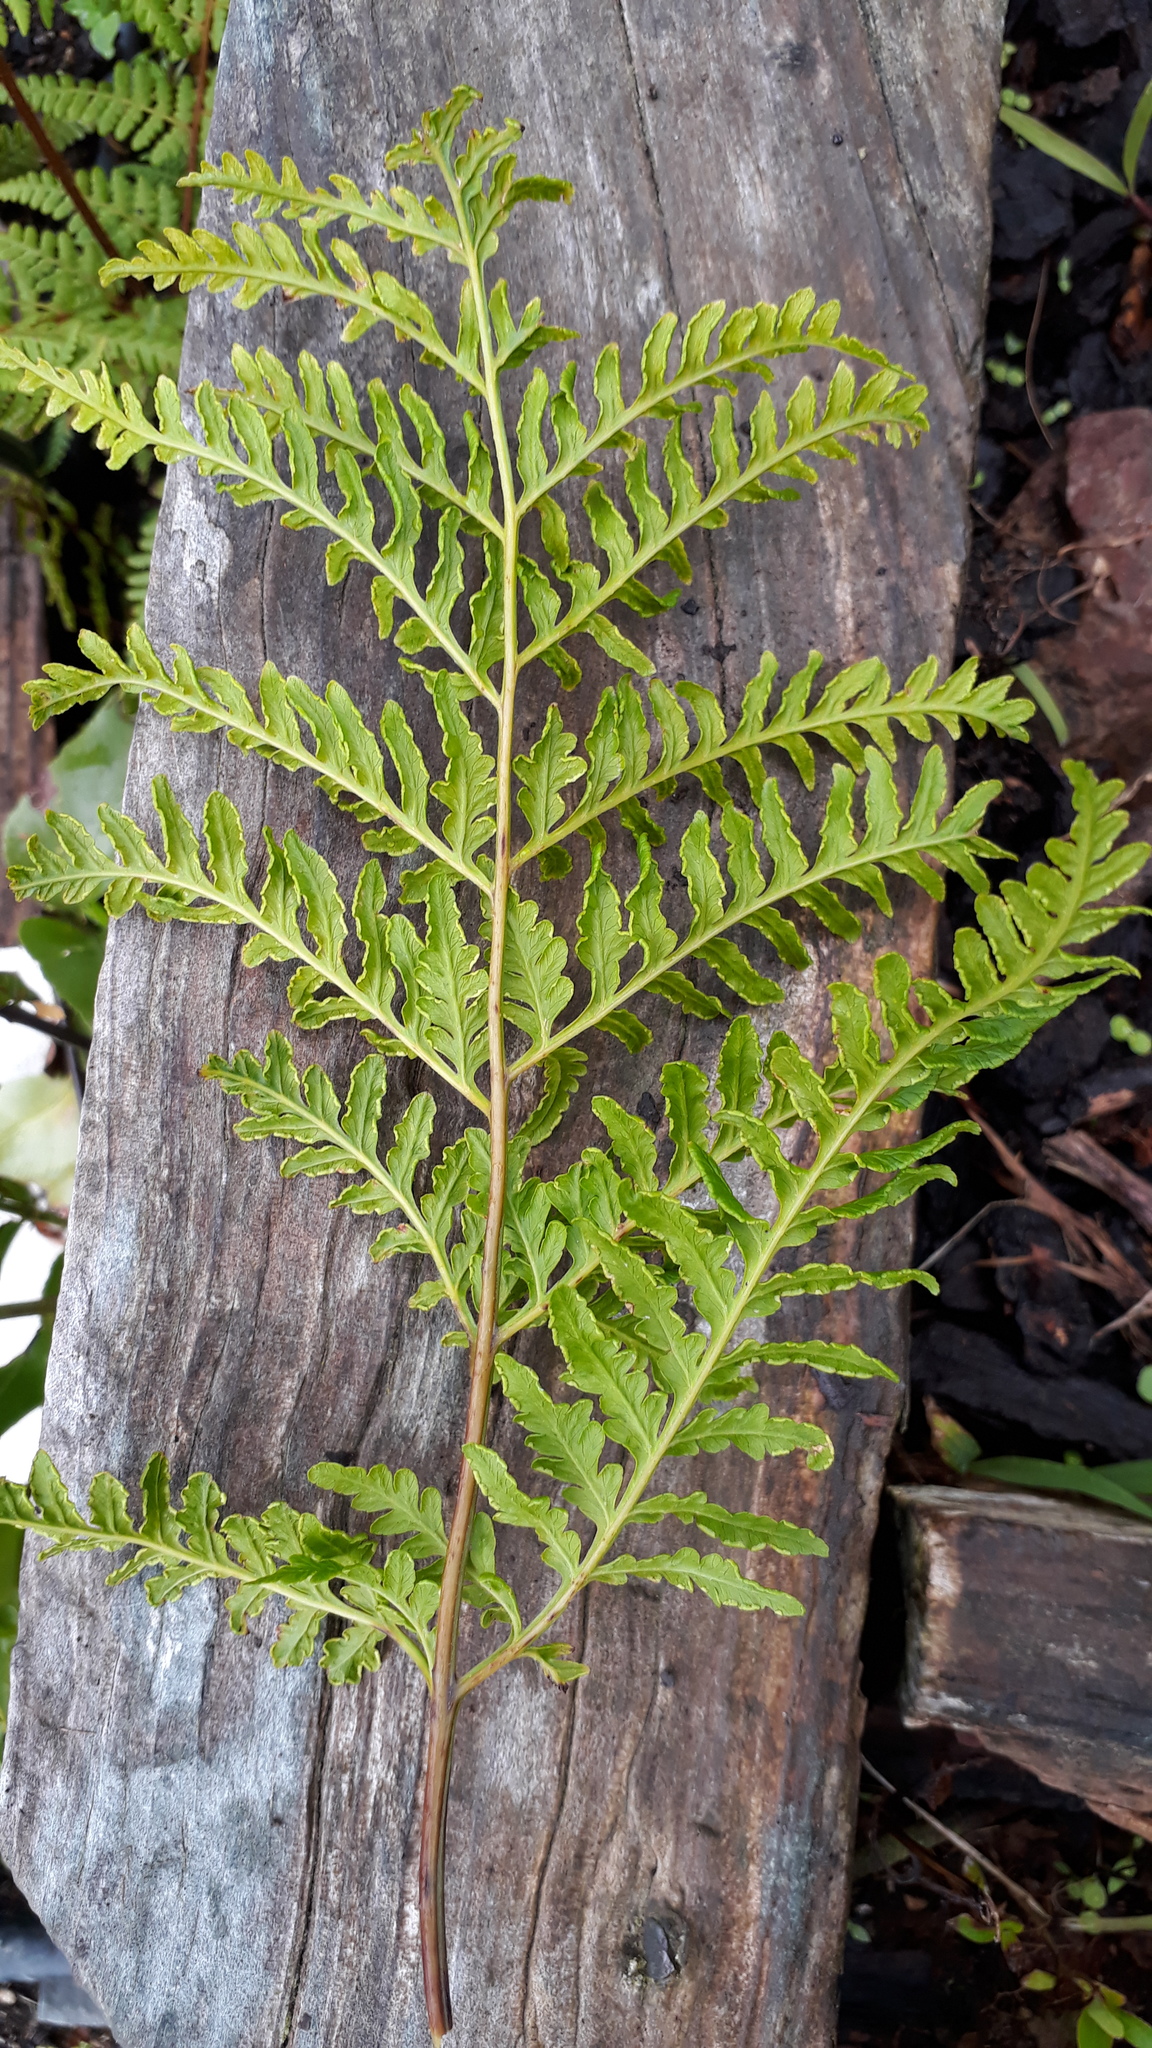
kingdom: Plantae
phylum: Tracheophyta
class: Polypodiopsida
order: Polypodiales
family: Pteridaceae
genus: Pteris
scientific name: Pteris tremula
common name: Australian brake
